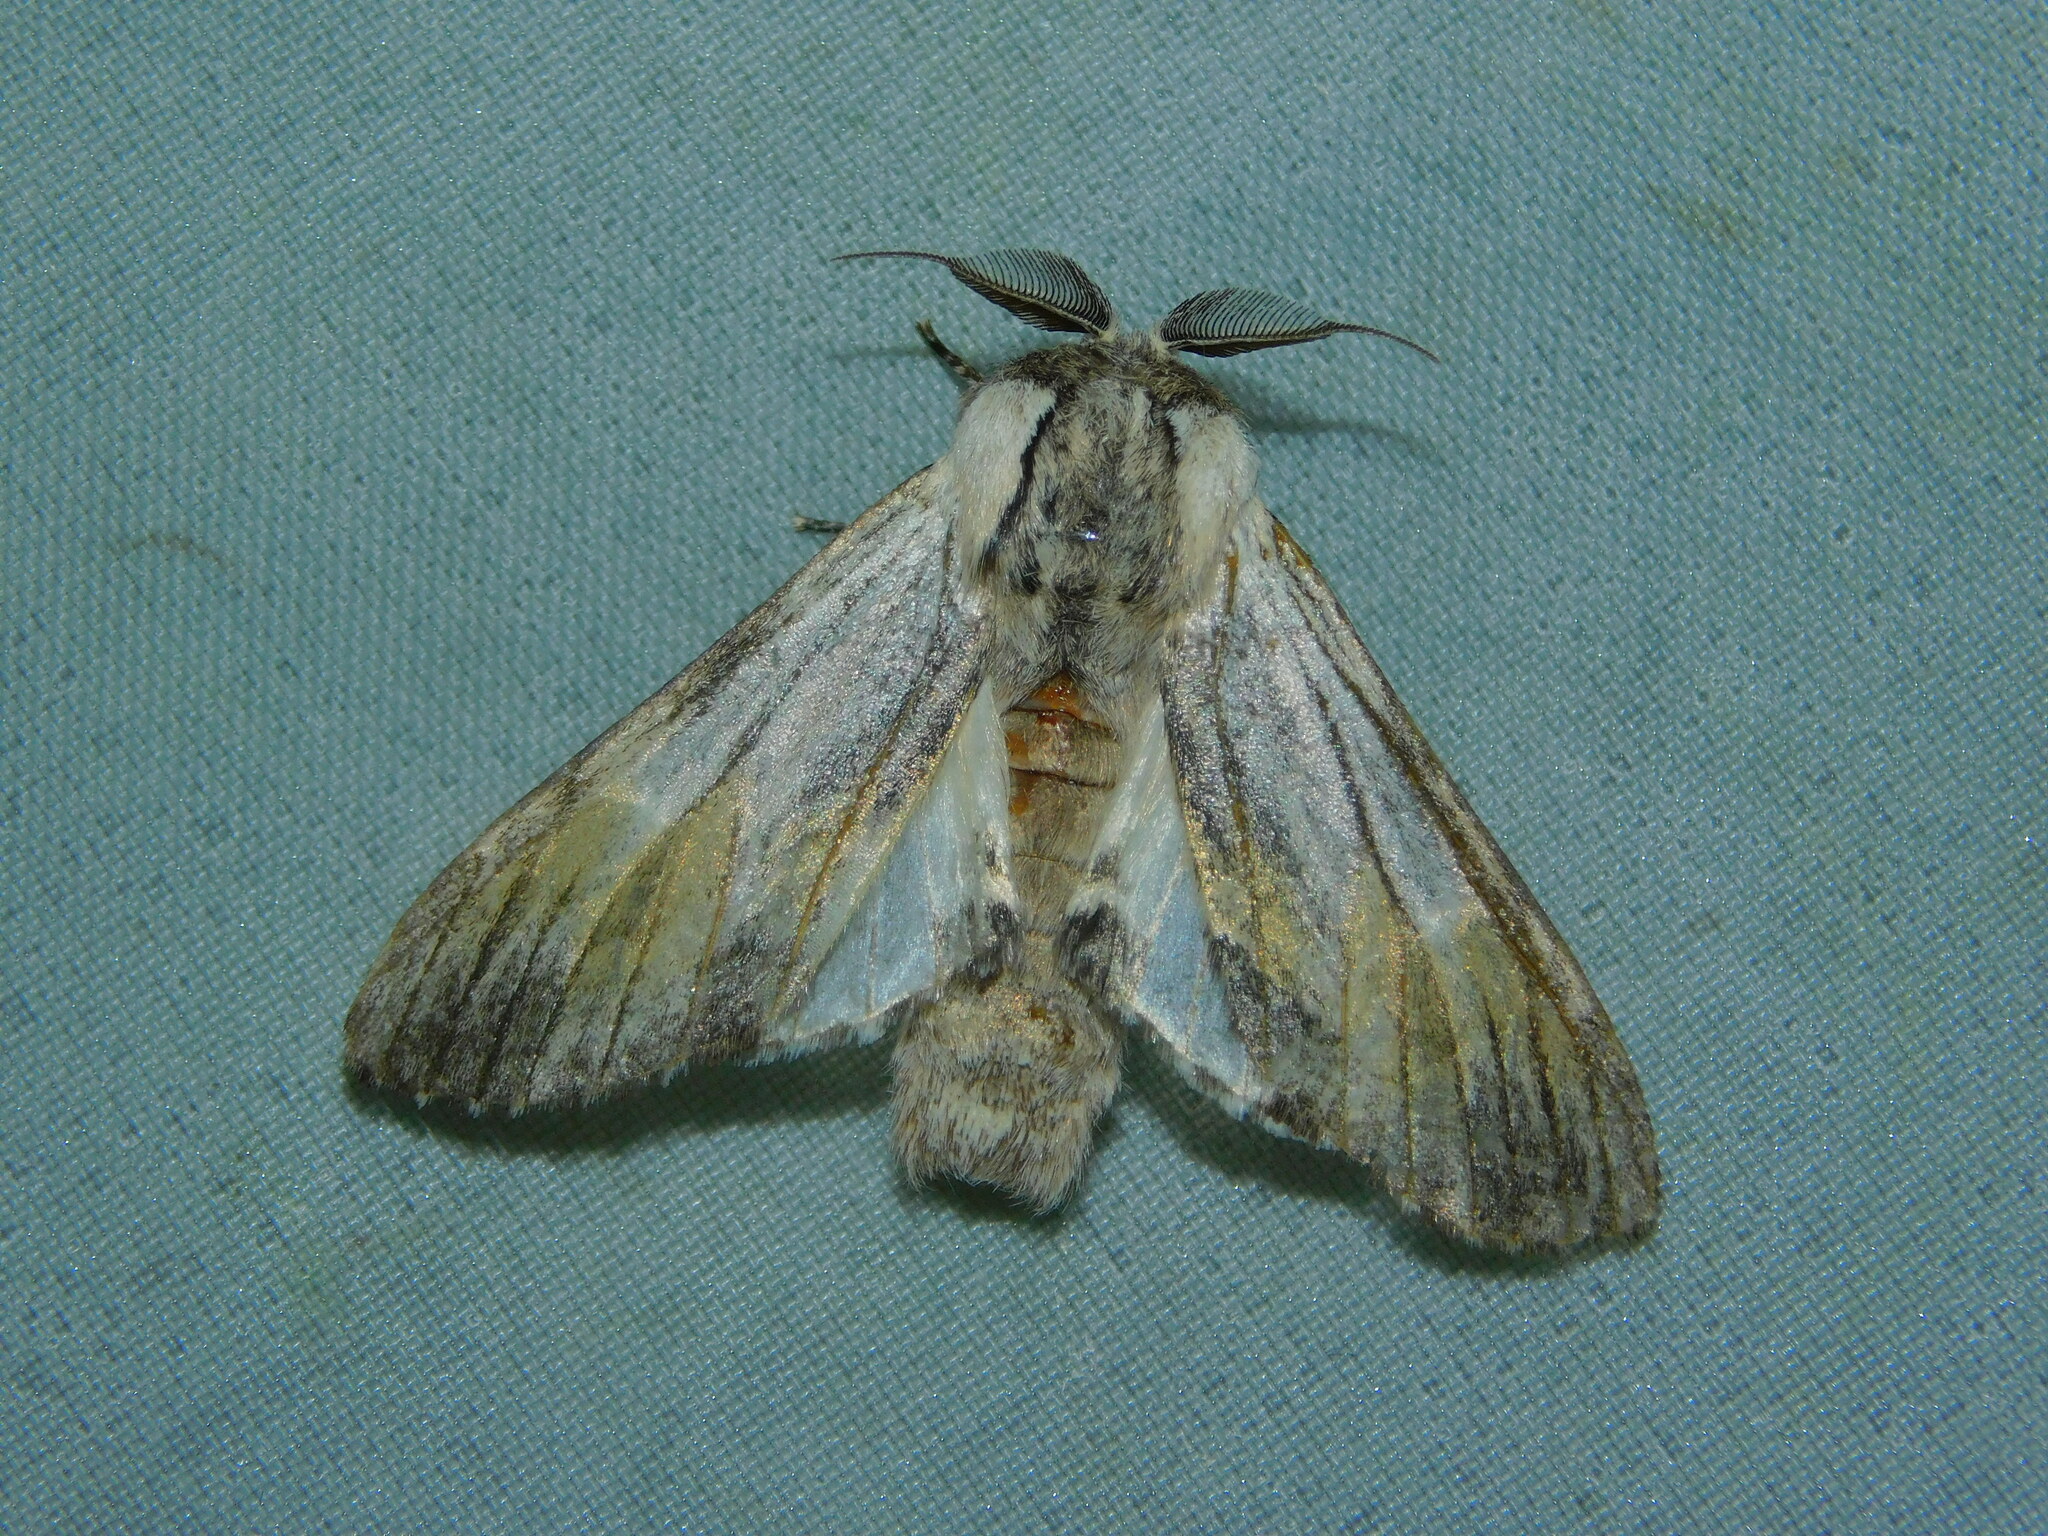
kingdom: Animalia
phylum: Arthropoda
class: Insecta
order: Lepidoptera
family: Notodontidae
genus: Harpyia
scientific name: Harpyia milhauseri
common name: Tawny prominent
